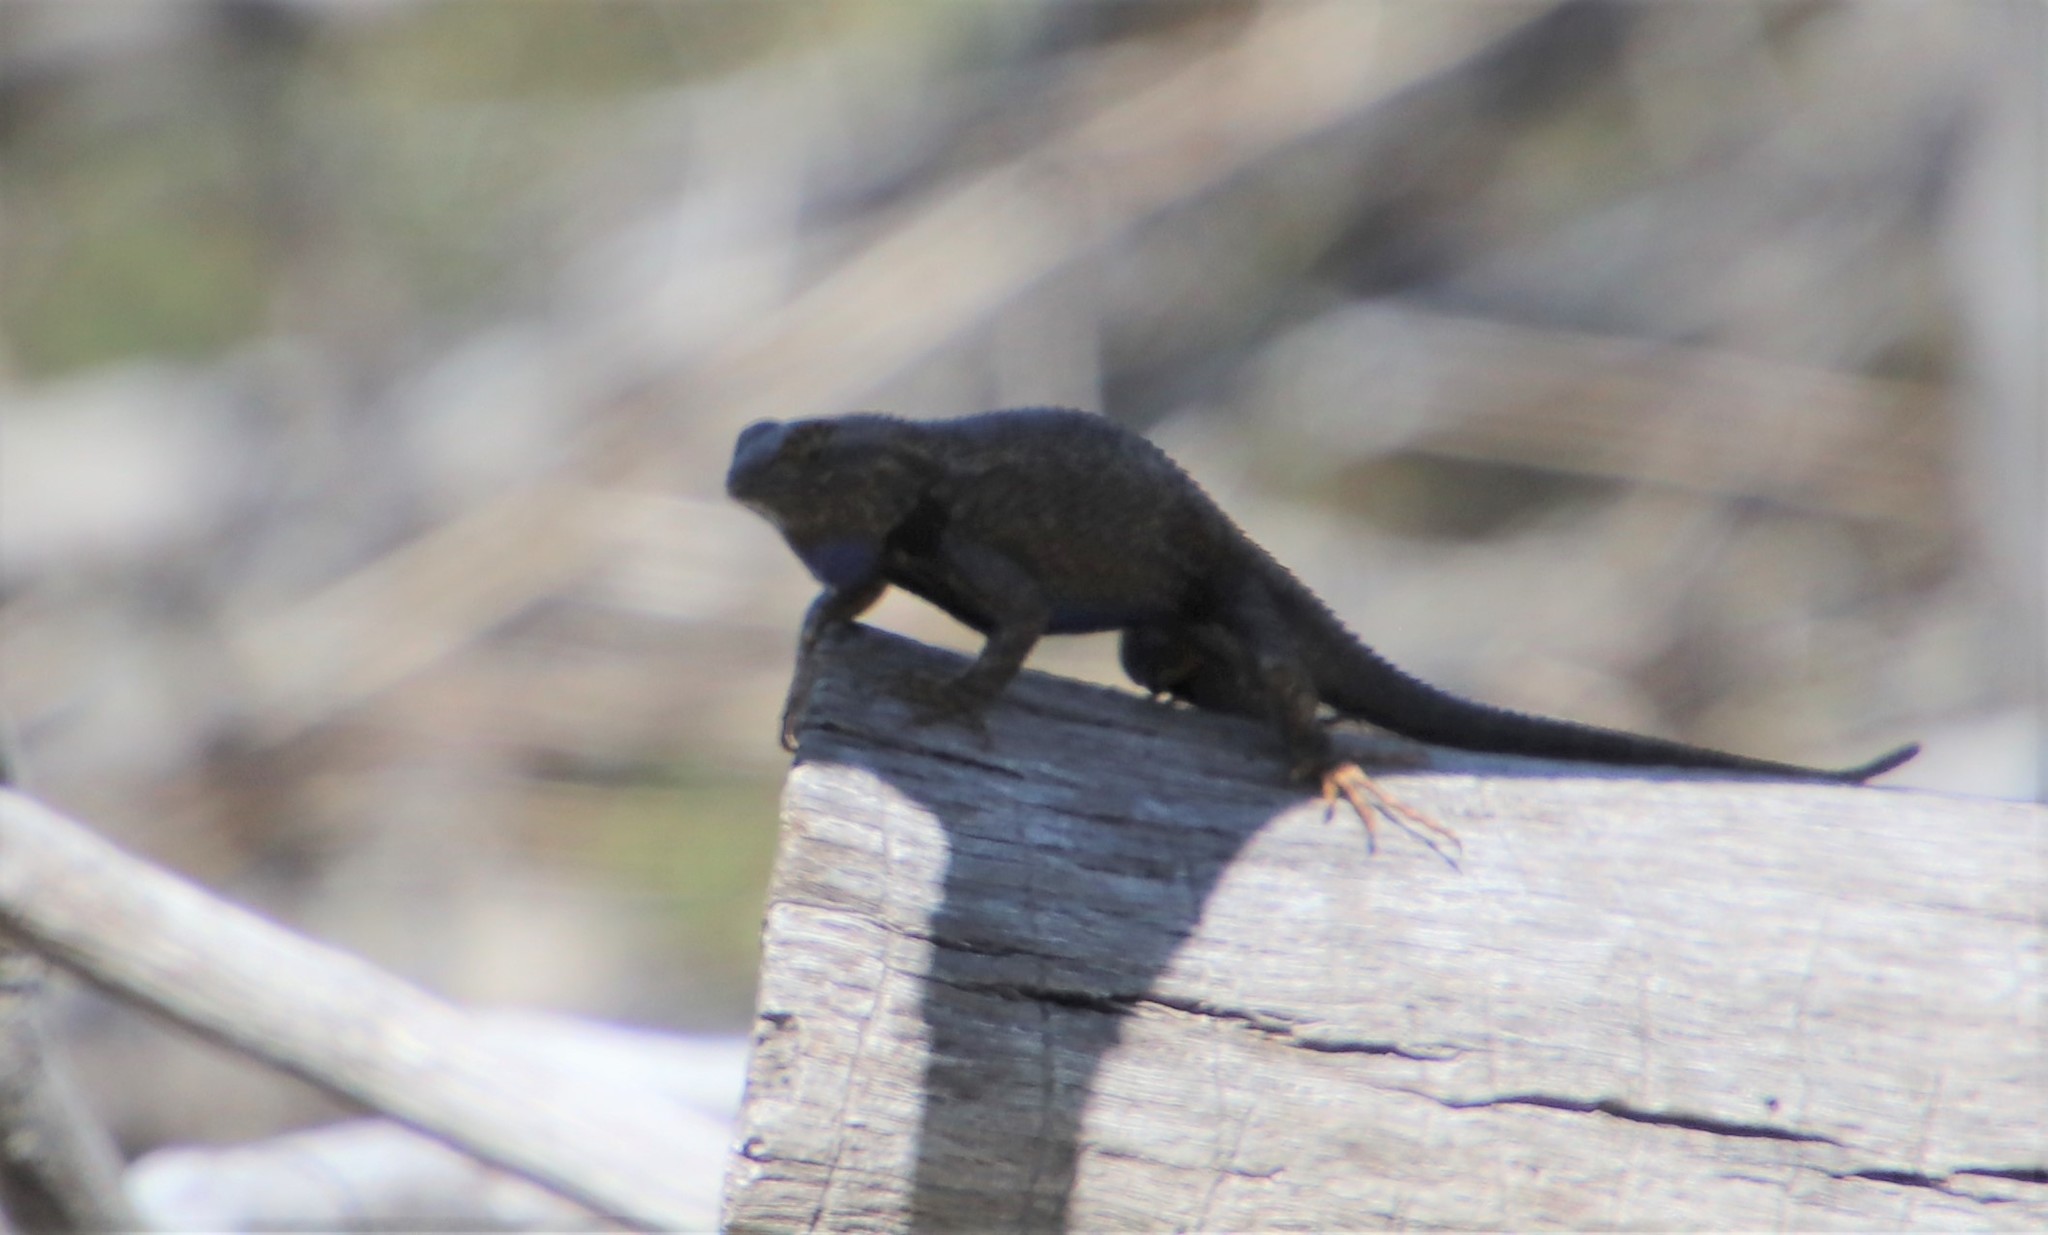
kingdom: Animalia
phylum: Chordata
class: Squamata
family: Phrynosomatidae
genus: Sceloporus
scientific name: Sceloporus occidentalis
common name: Western fence lizard
